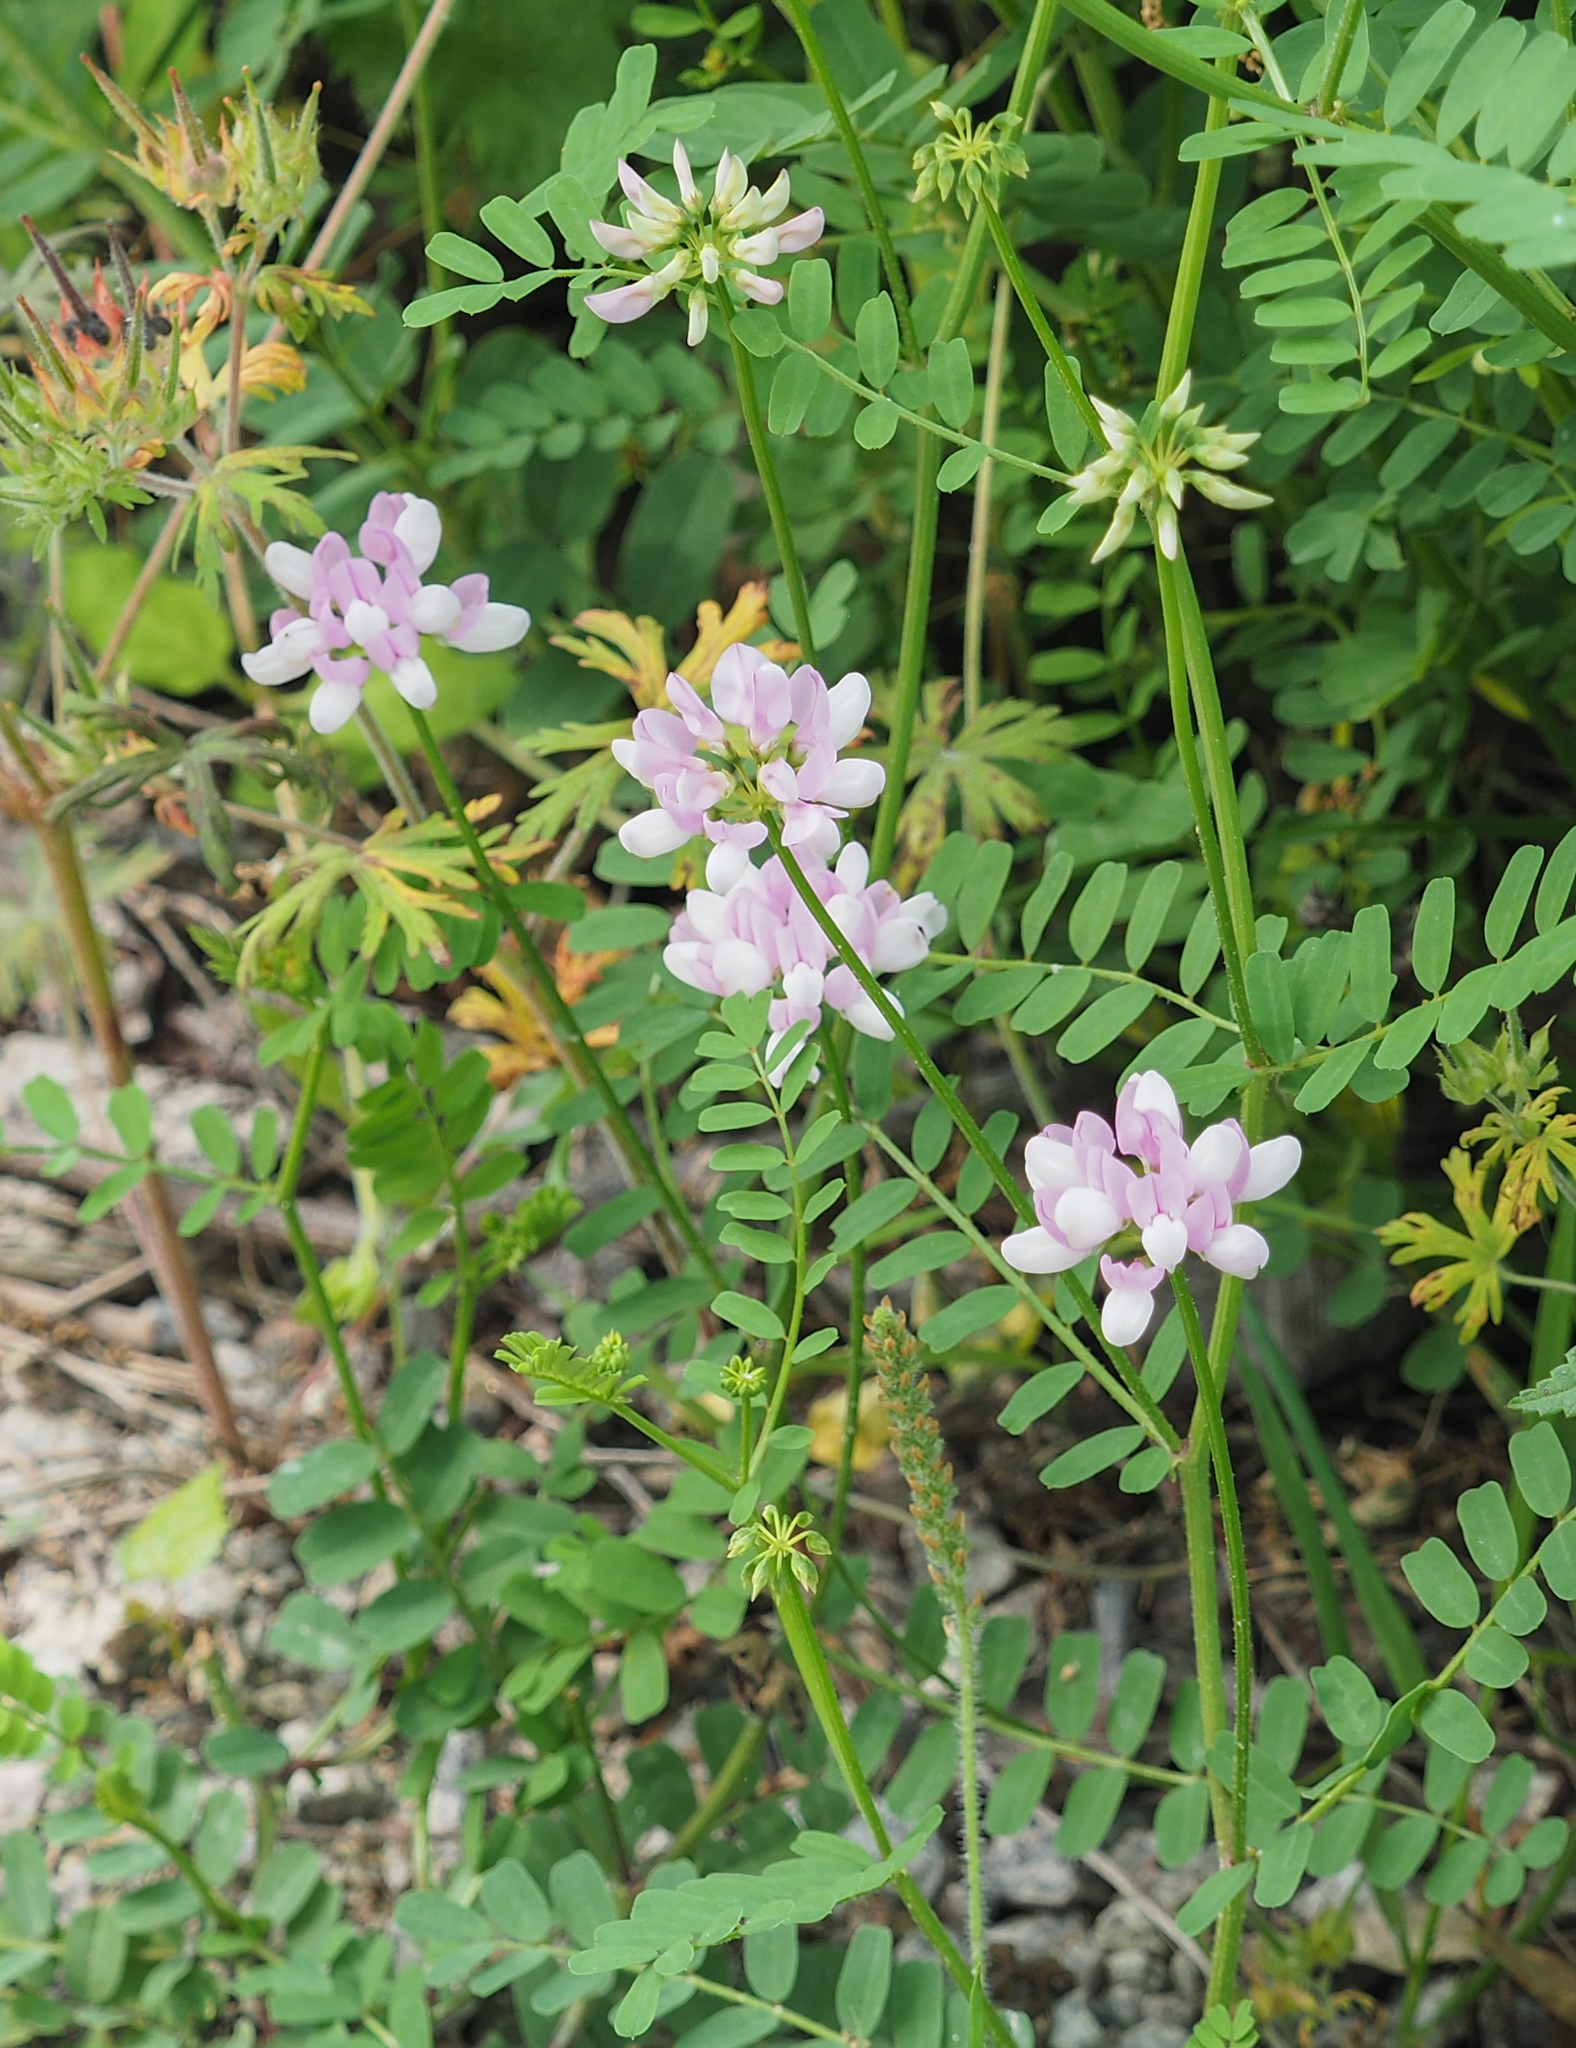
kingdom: Plantae
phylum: Tracheophyta
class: Magnoliopsida
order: Fabales
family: Fabaceae
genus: Coronilla
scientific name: Coronilla varia
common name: Crownvetch
